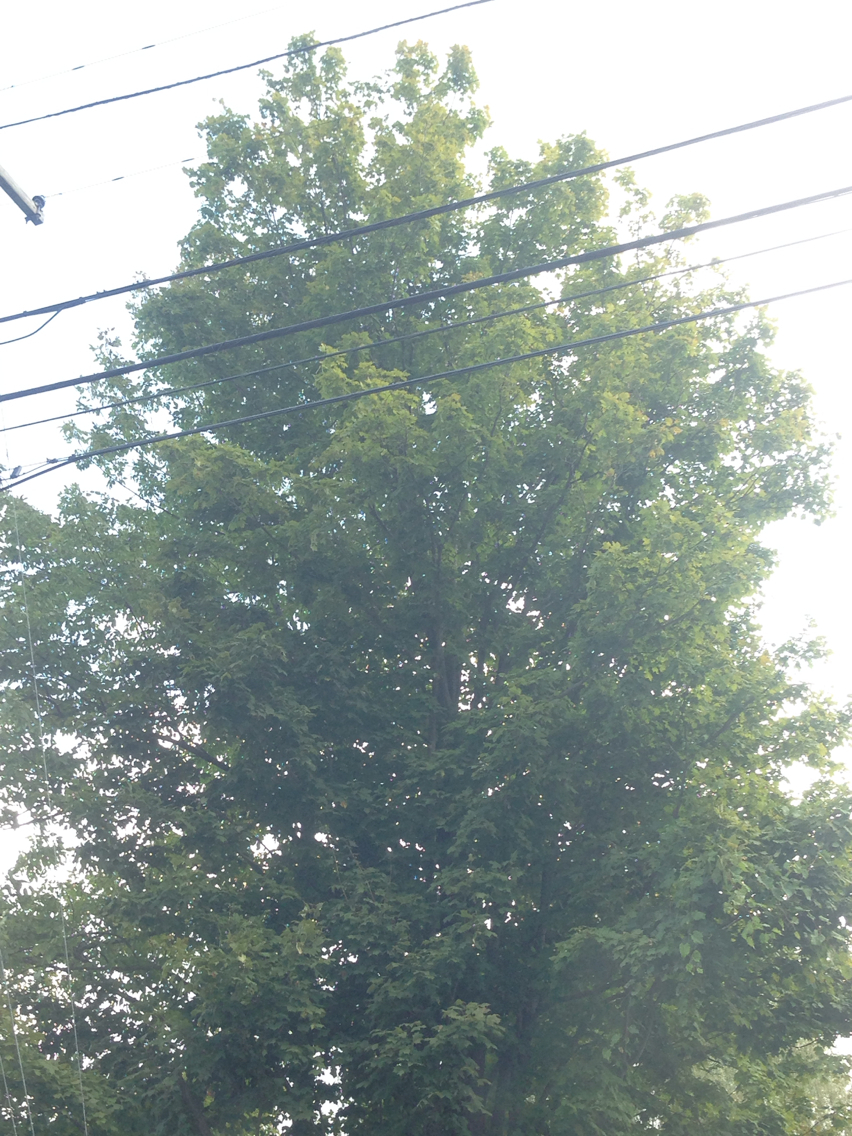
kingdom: Plantae
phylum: Tracheophyta
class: Magnoliopsida
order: Sapindales
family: Sapindaceae
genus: Acer
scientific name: Acer saccharum
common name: Sugar maple
